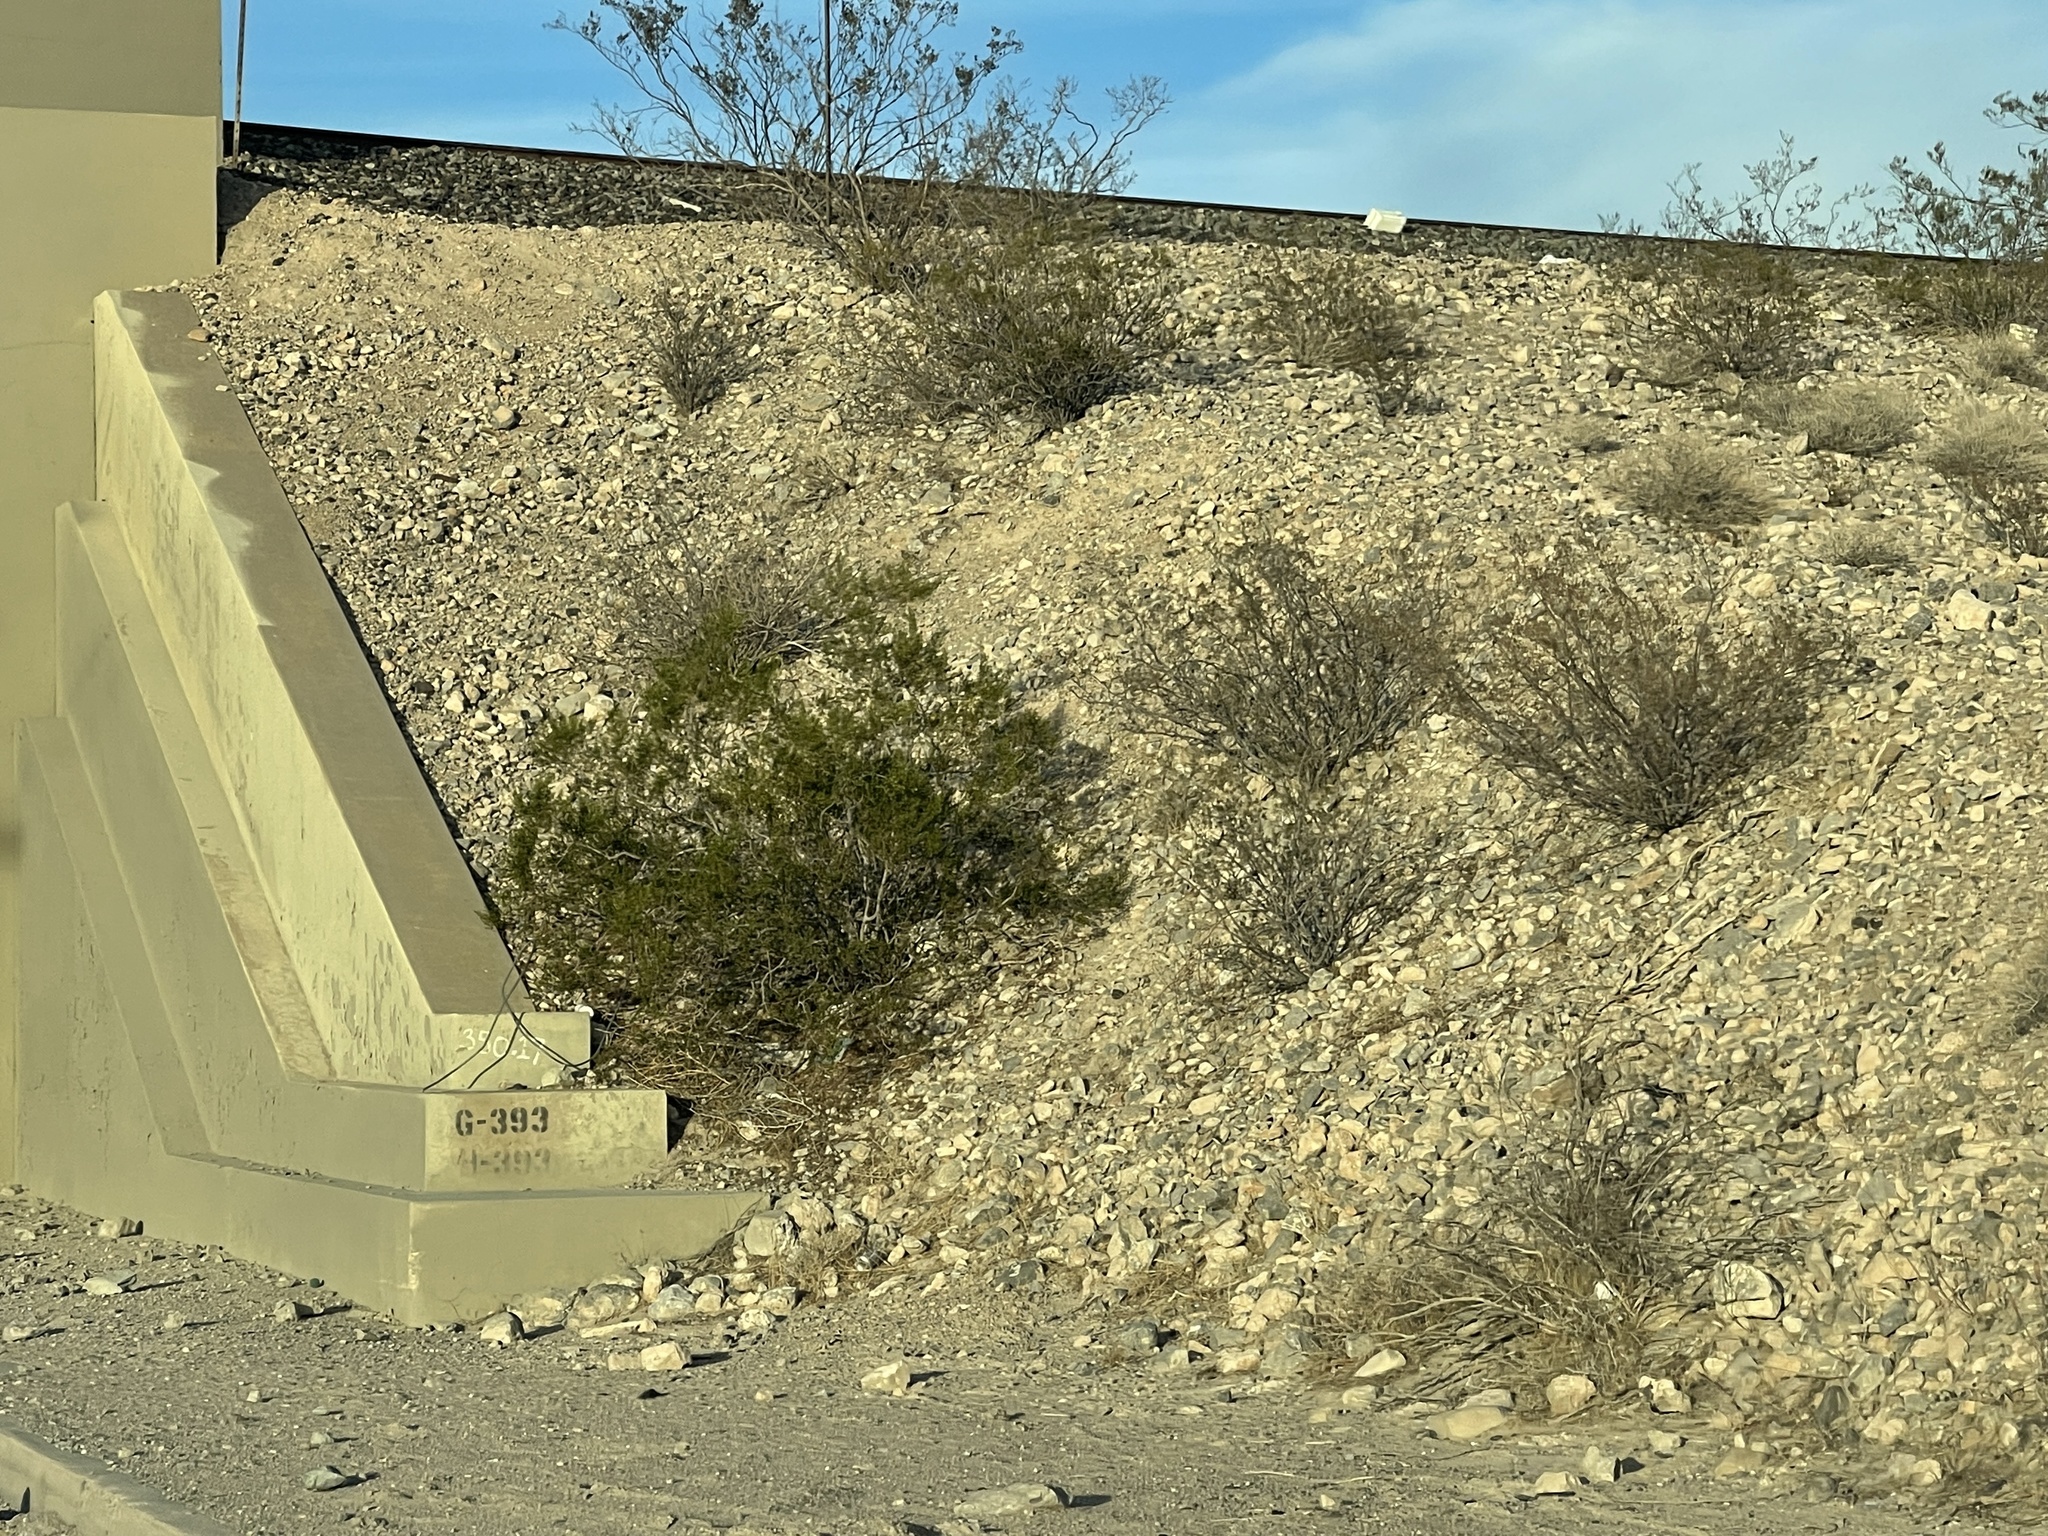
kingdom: Plantae
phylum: Tracheophyta
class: Magnoliopsida
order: Zygophyllales
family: Zygophyllaceae
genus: Larrea
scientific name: Larrea tridentata
